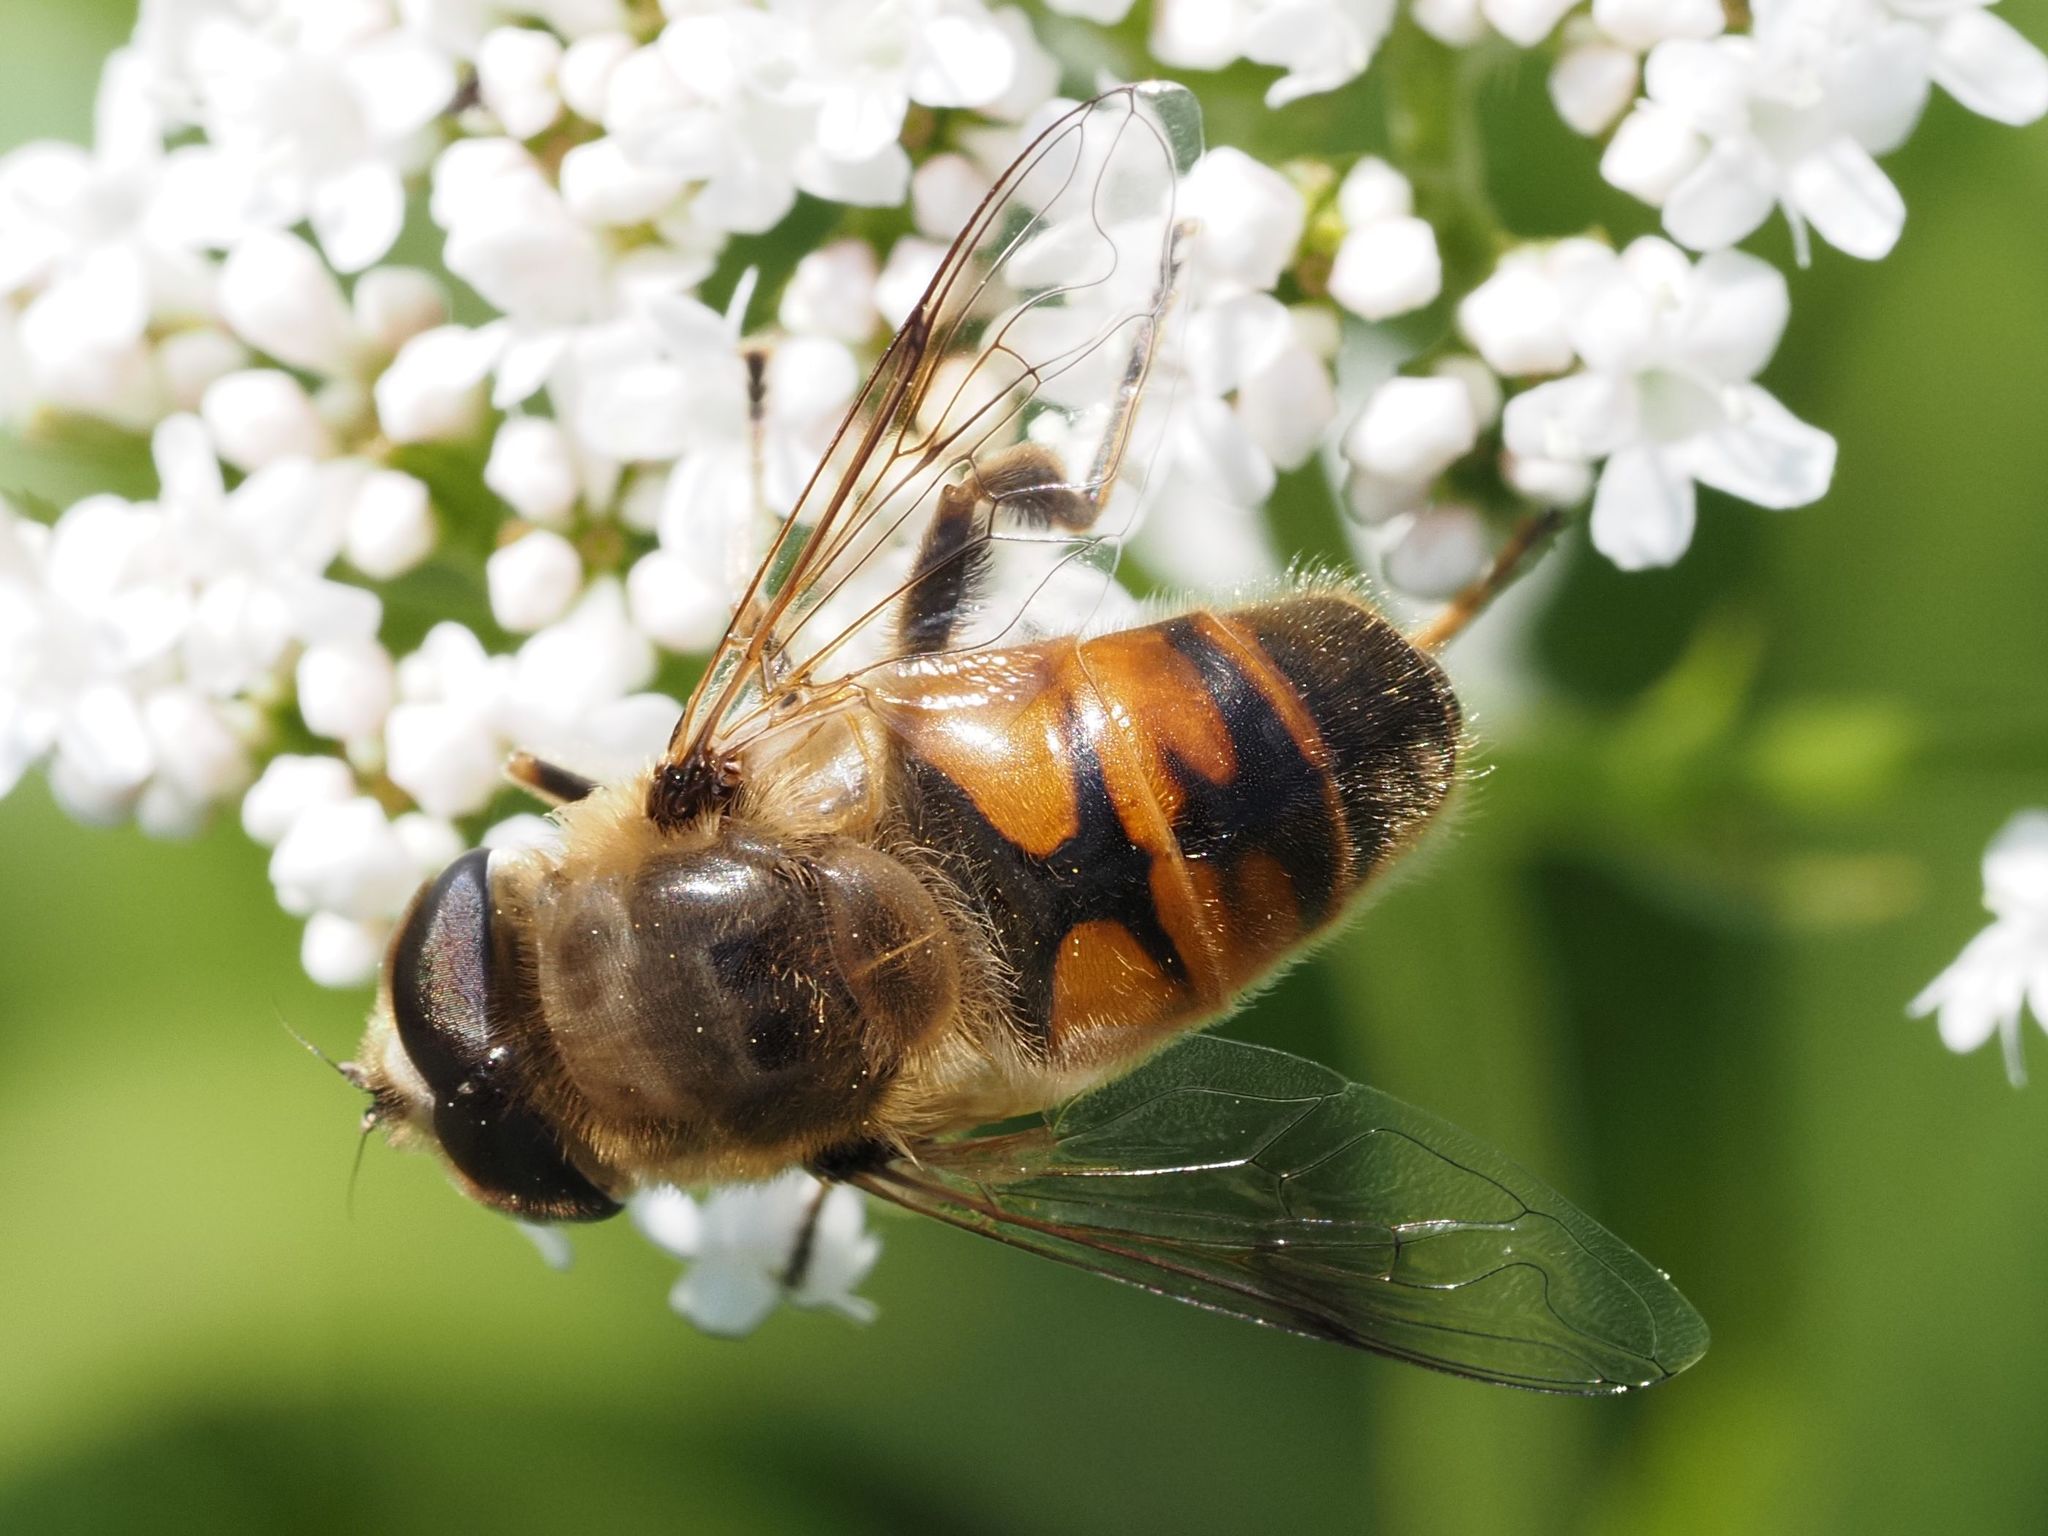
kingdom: Animalia
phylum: Arthropoda
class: Insecta
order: Diptera
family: Syrphidae
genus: Eristalis
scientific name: Eristalis tenax
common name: Drone fly
